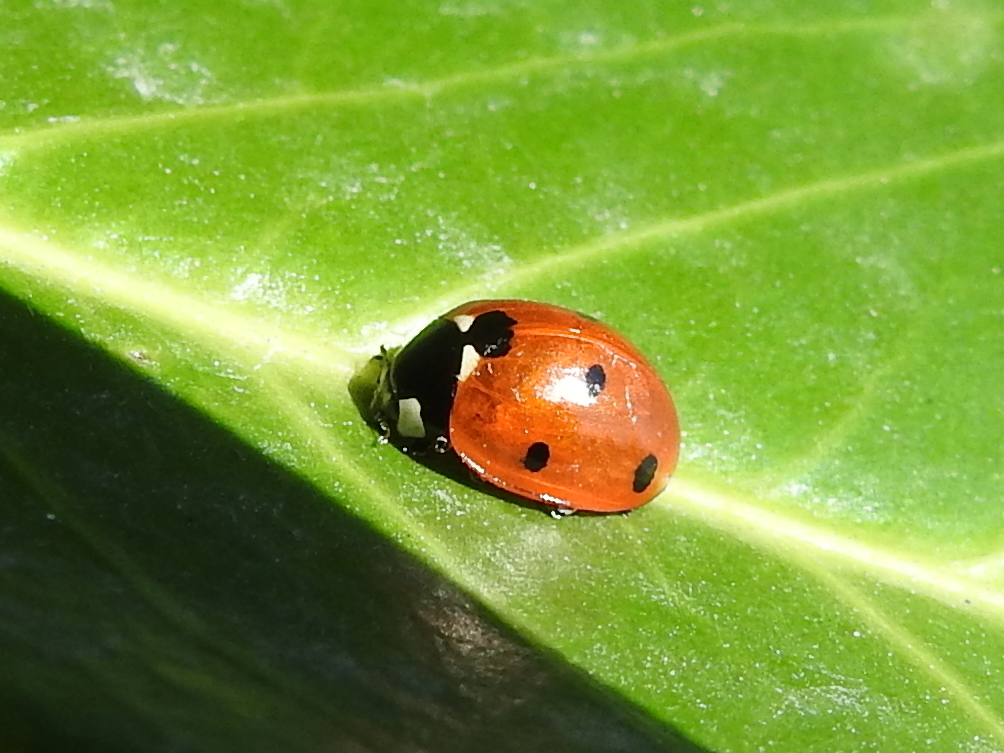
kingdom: Animalia
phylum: Arthropoda
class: Insecta
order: Coleoptera
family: Coccinellidae
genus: Coccinella
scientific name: Coccinella septempunctata
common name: Sevenspotted lady beetle
